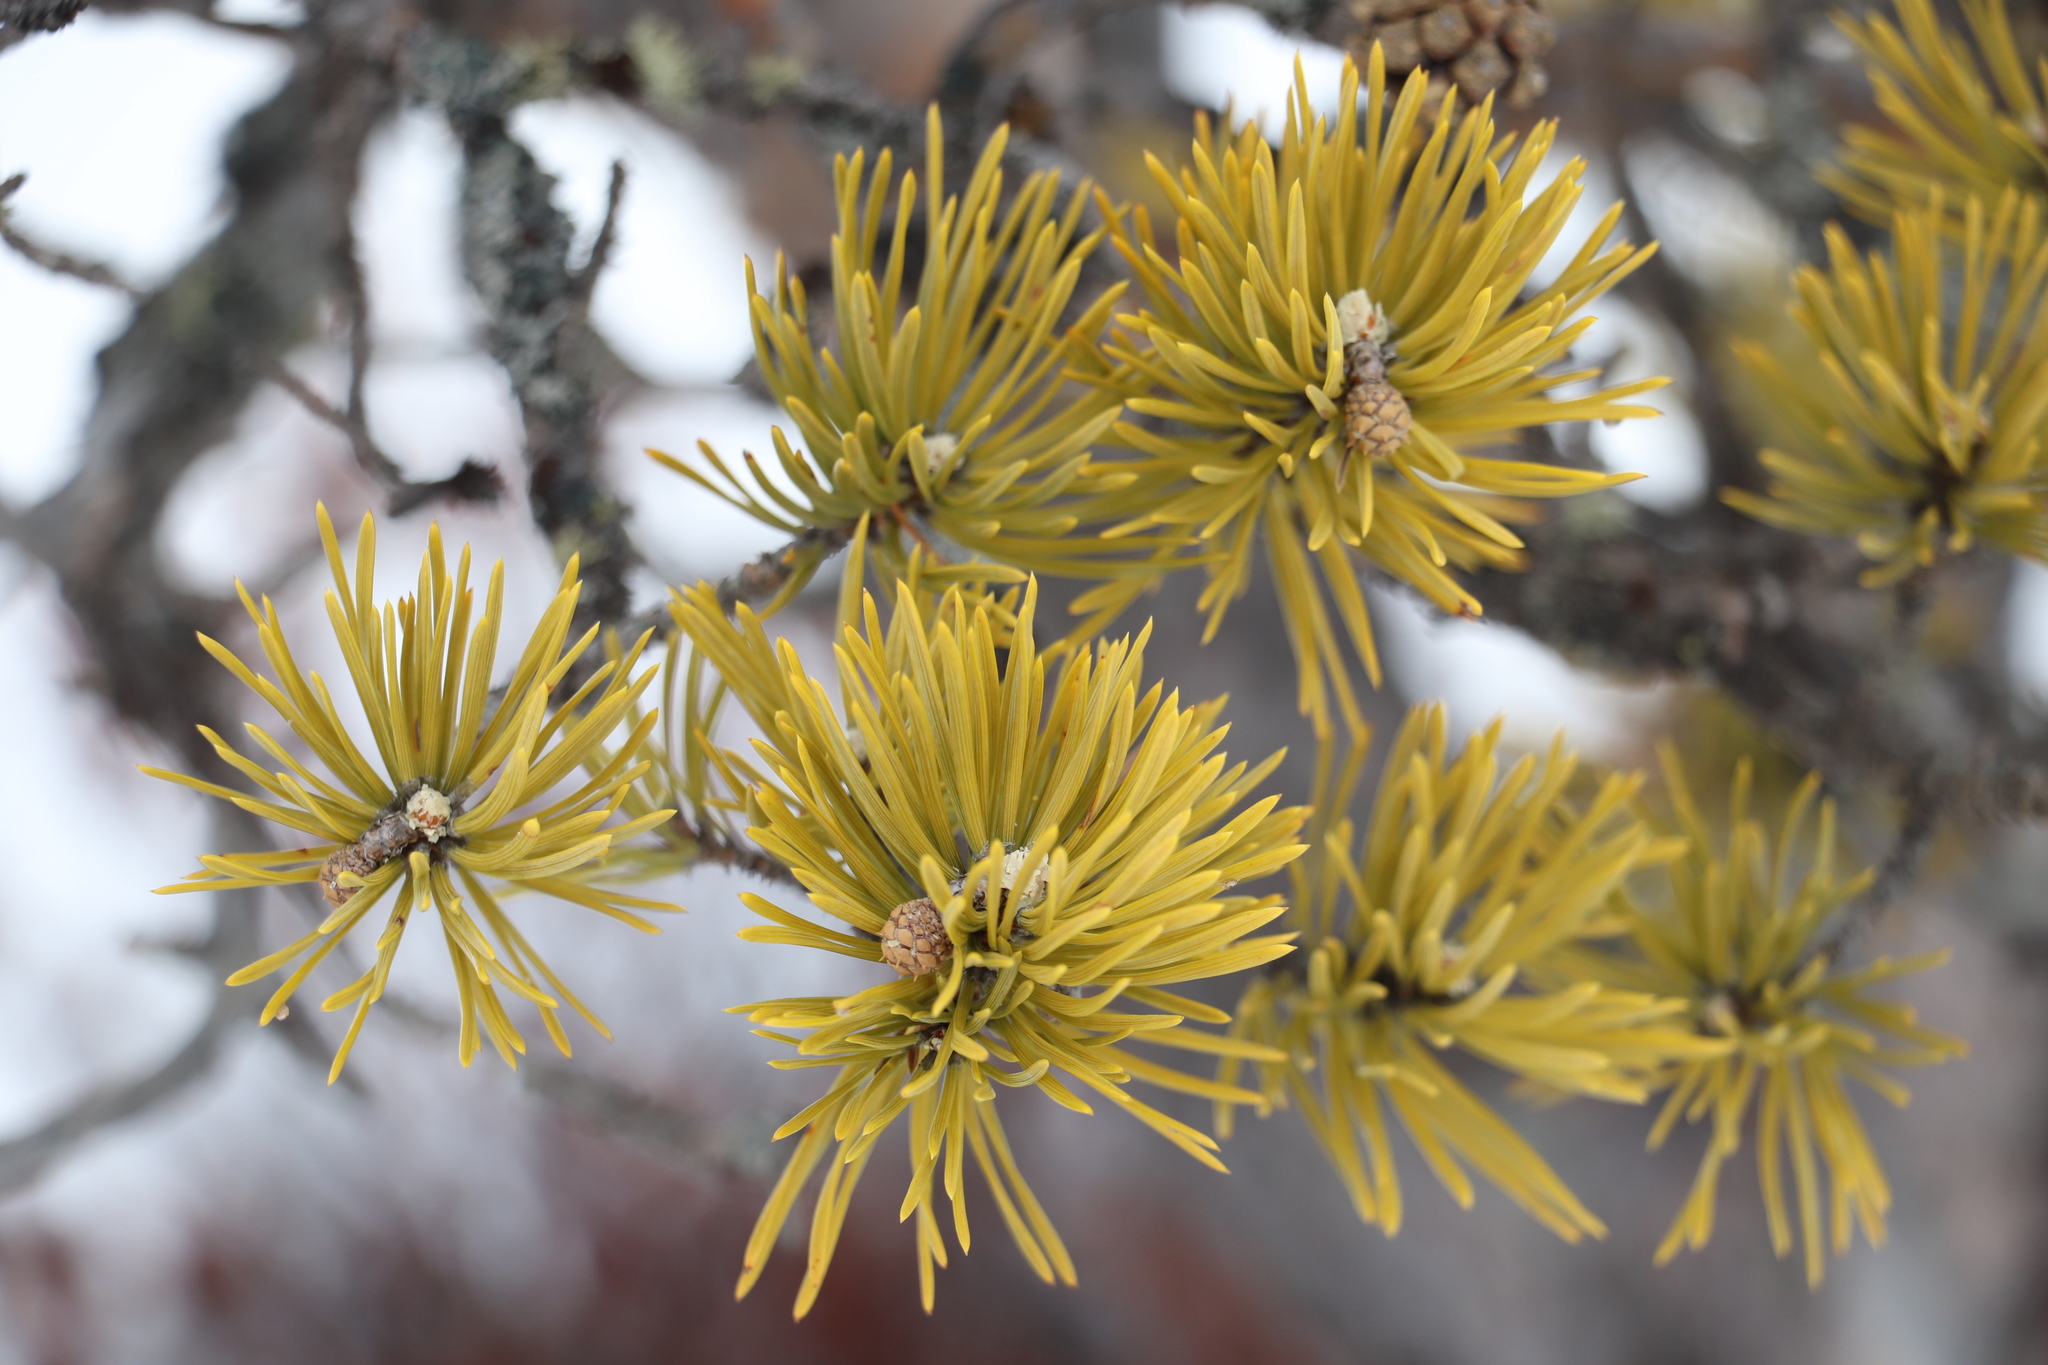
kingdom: Plantae
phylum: Tracheophyta
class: Pinopsida
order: Pinales
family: Pinaceae
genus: Pinus
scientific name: Pinus sylvestris
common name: Scots pine
